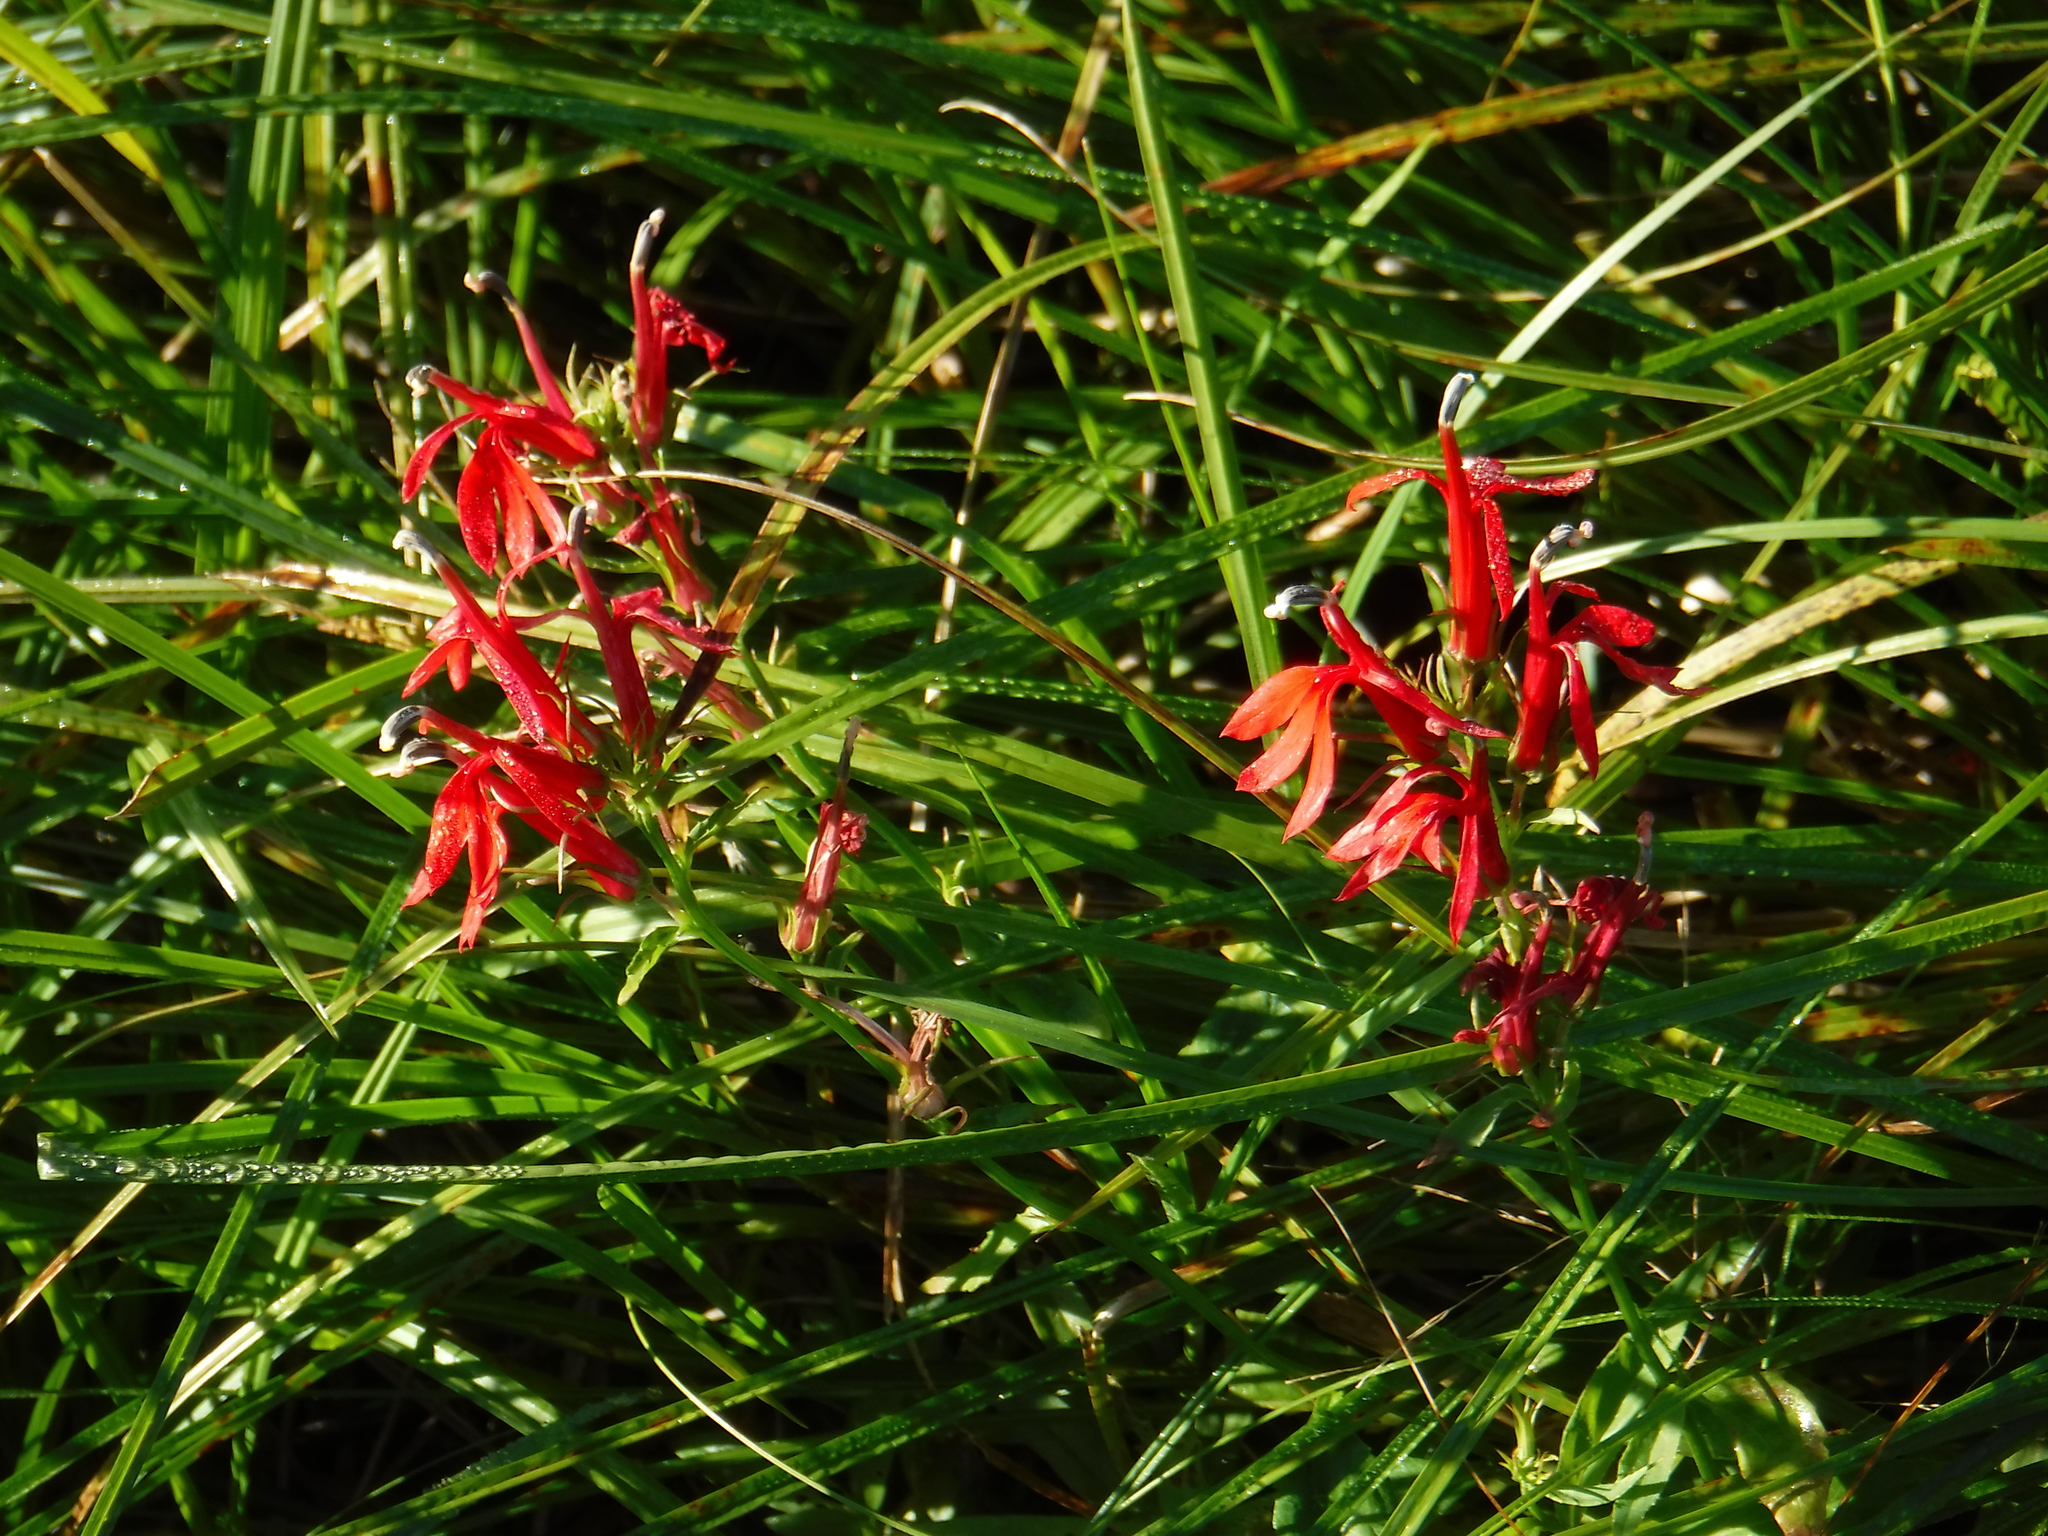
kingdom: Plantae
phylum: Tracheophyta
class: Magnoliopsida
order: Asterales
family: Campanulaceae
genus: Lobelia
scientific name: Lobelia cardinalis
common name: Cardinal flower
